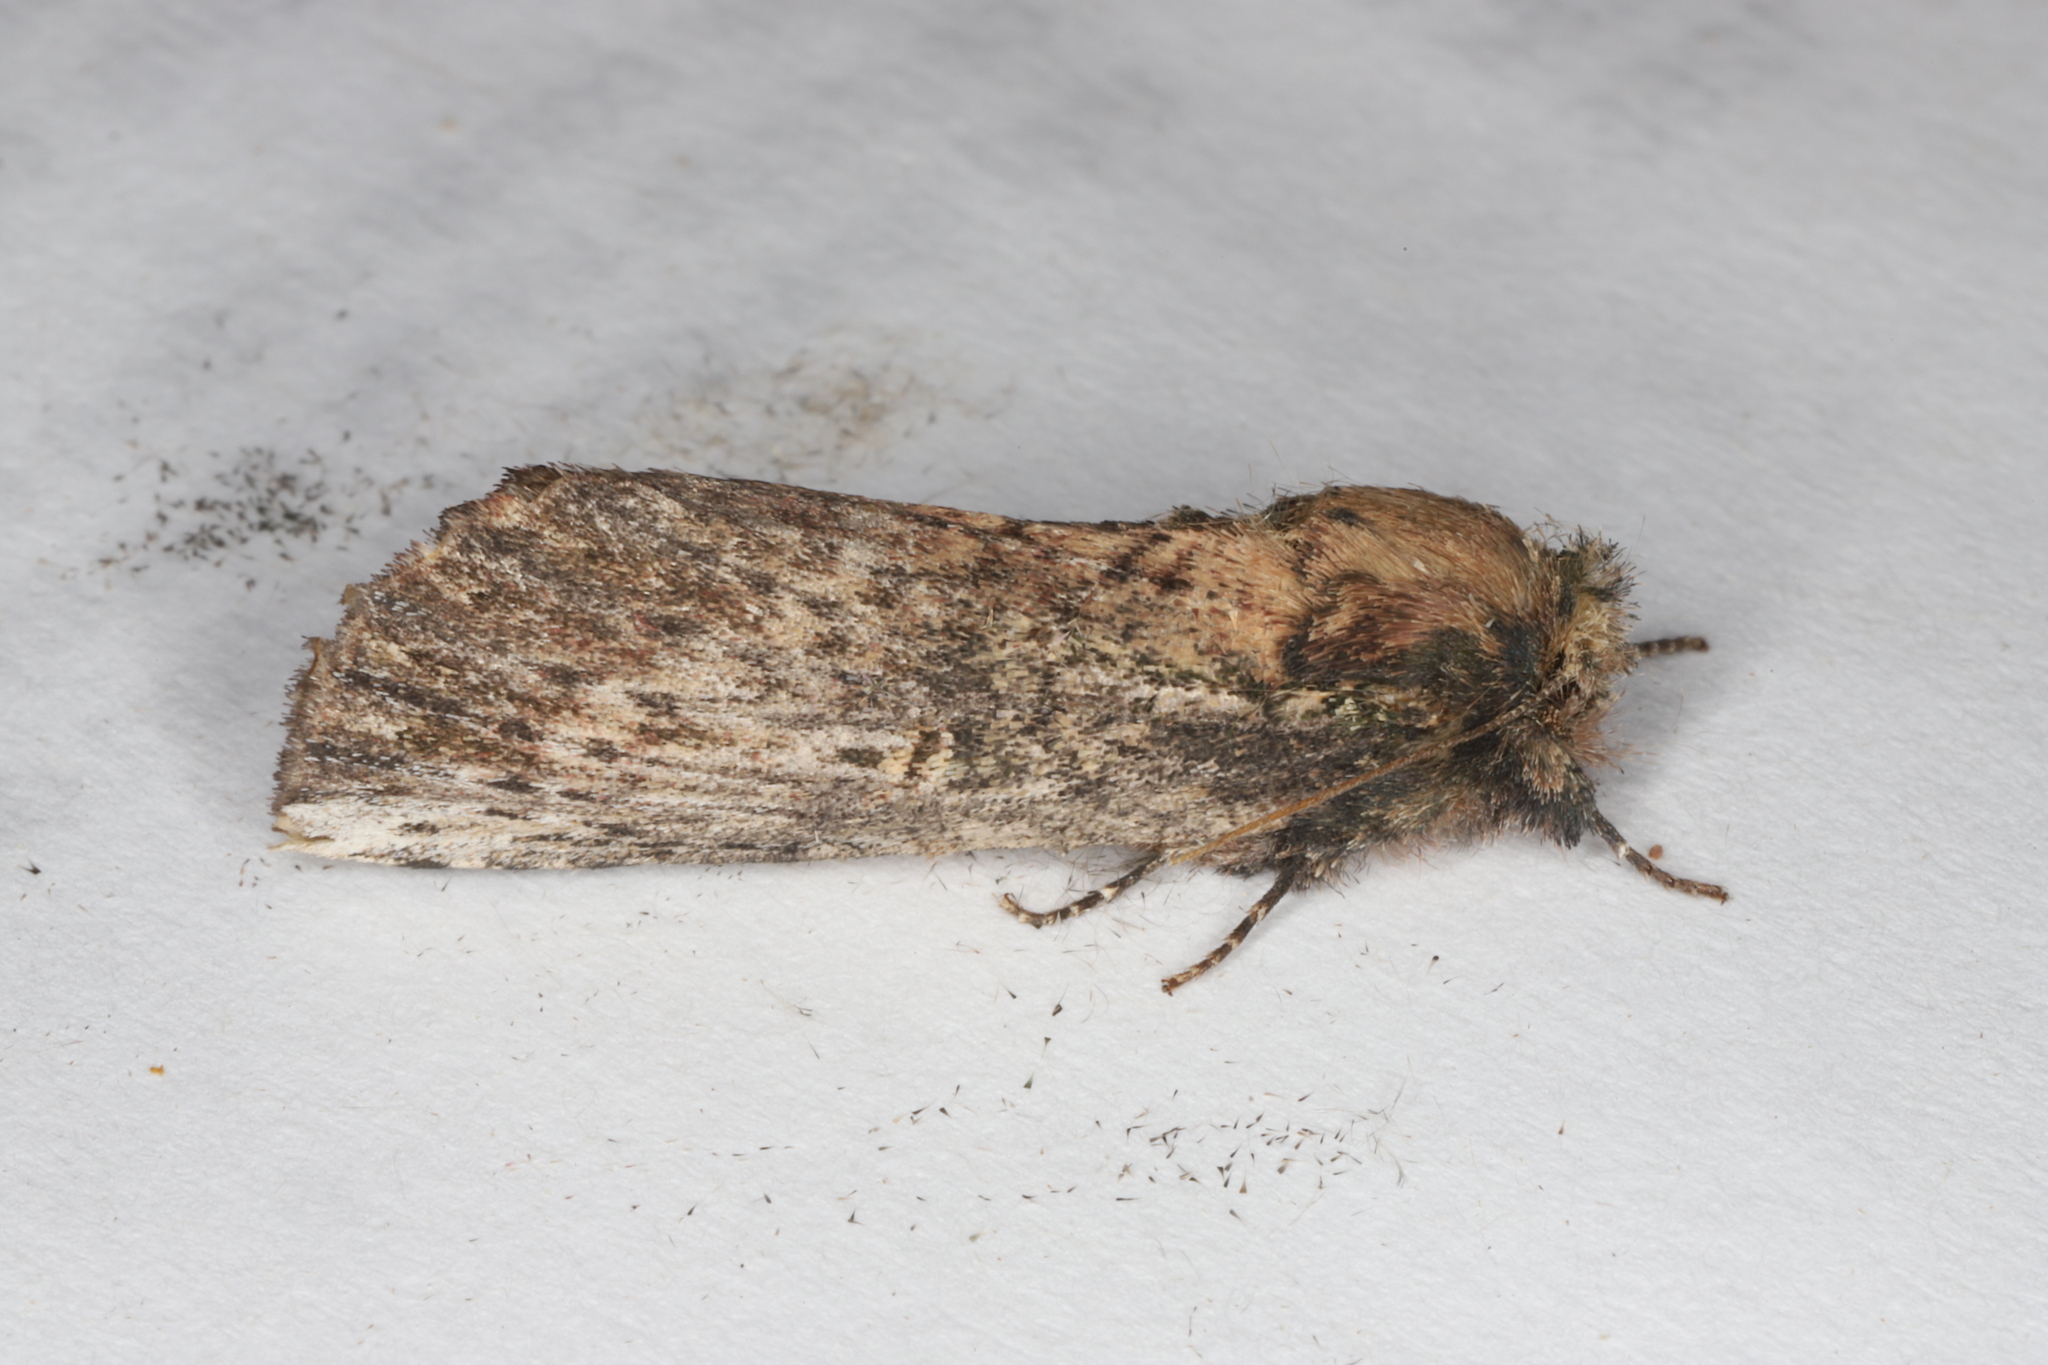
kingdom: Animalia
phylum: Arthropoda
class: Insecta
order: Lepidoptera
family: Notodontidae
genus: Schizura
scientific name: Schizura ipomaeae
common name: Morning-glory prominent
